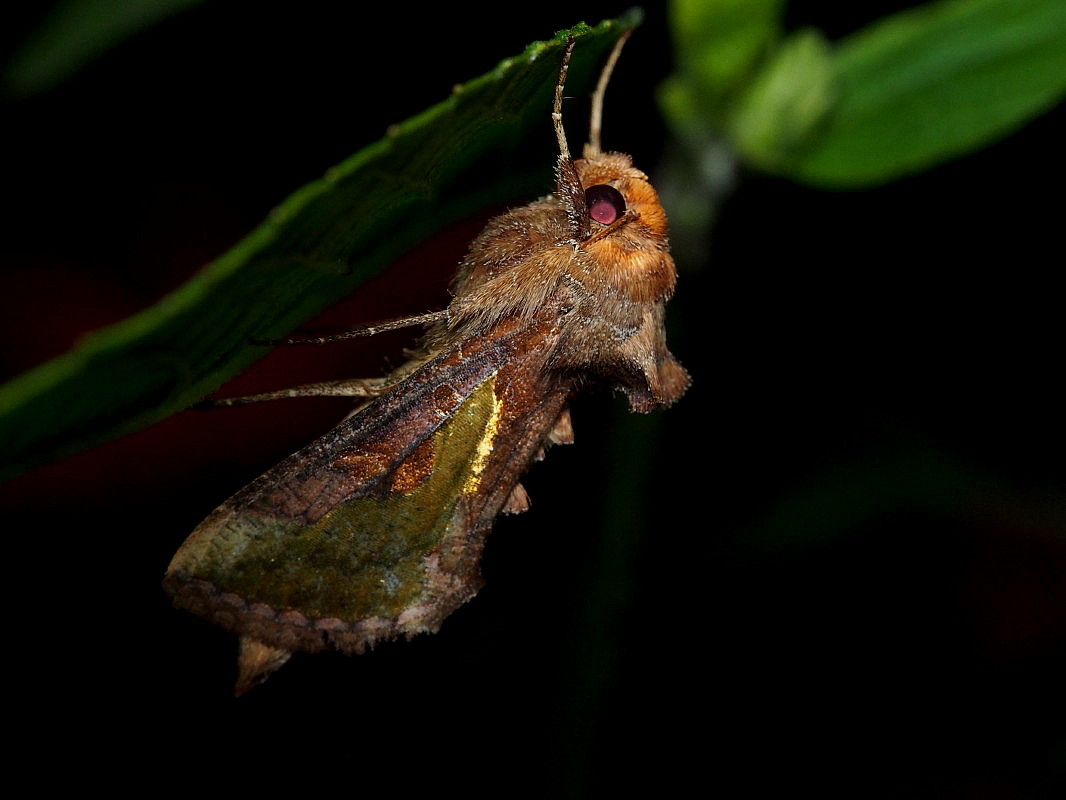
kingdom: Animalia
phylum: Arthropoda
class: Insecta
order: Lepidoptera
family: Noctuidae
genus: Thysanoplusia
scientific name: Thysanoplusia orichalcea
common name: Slender burnished brass, golden plusia
